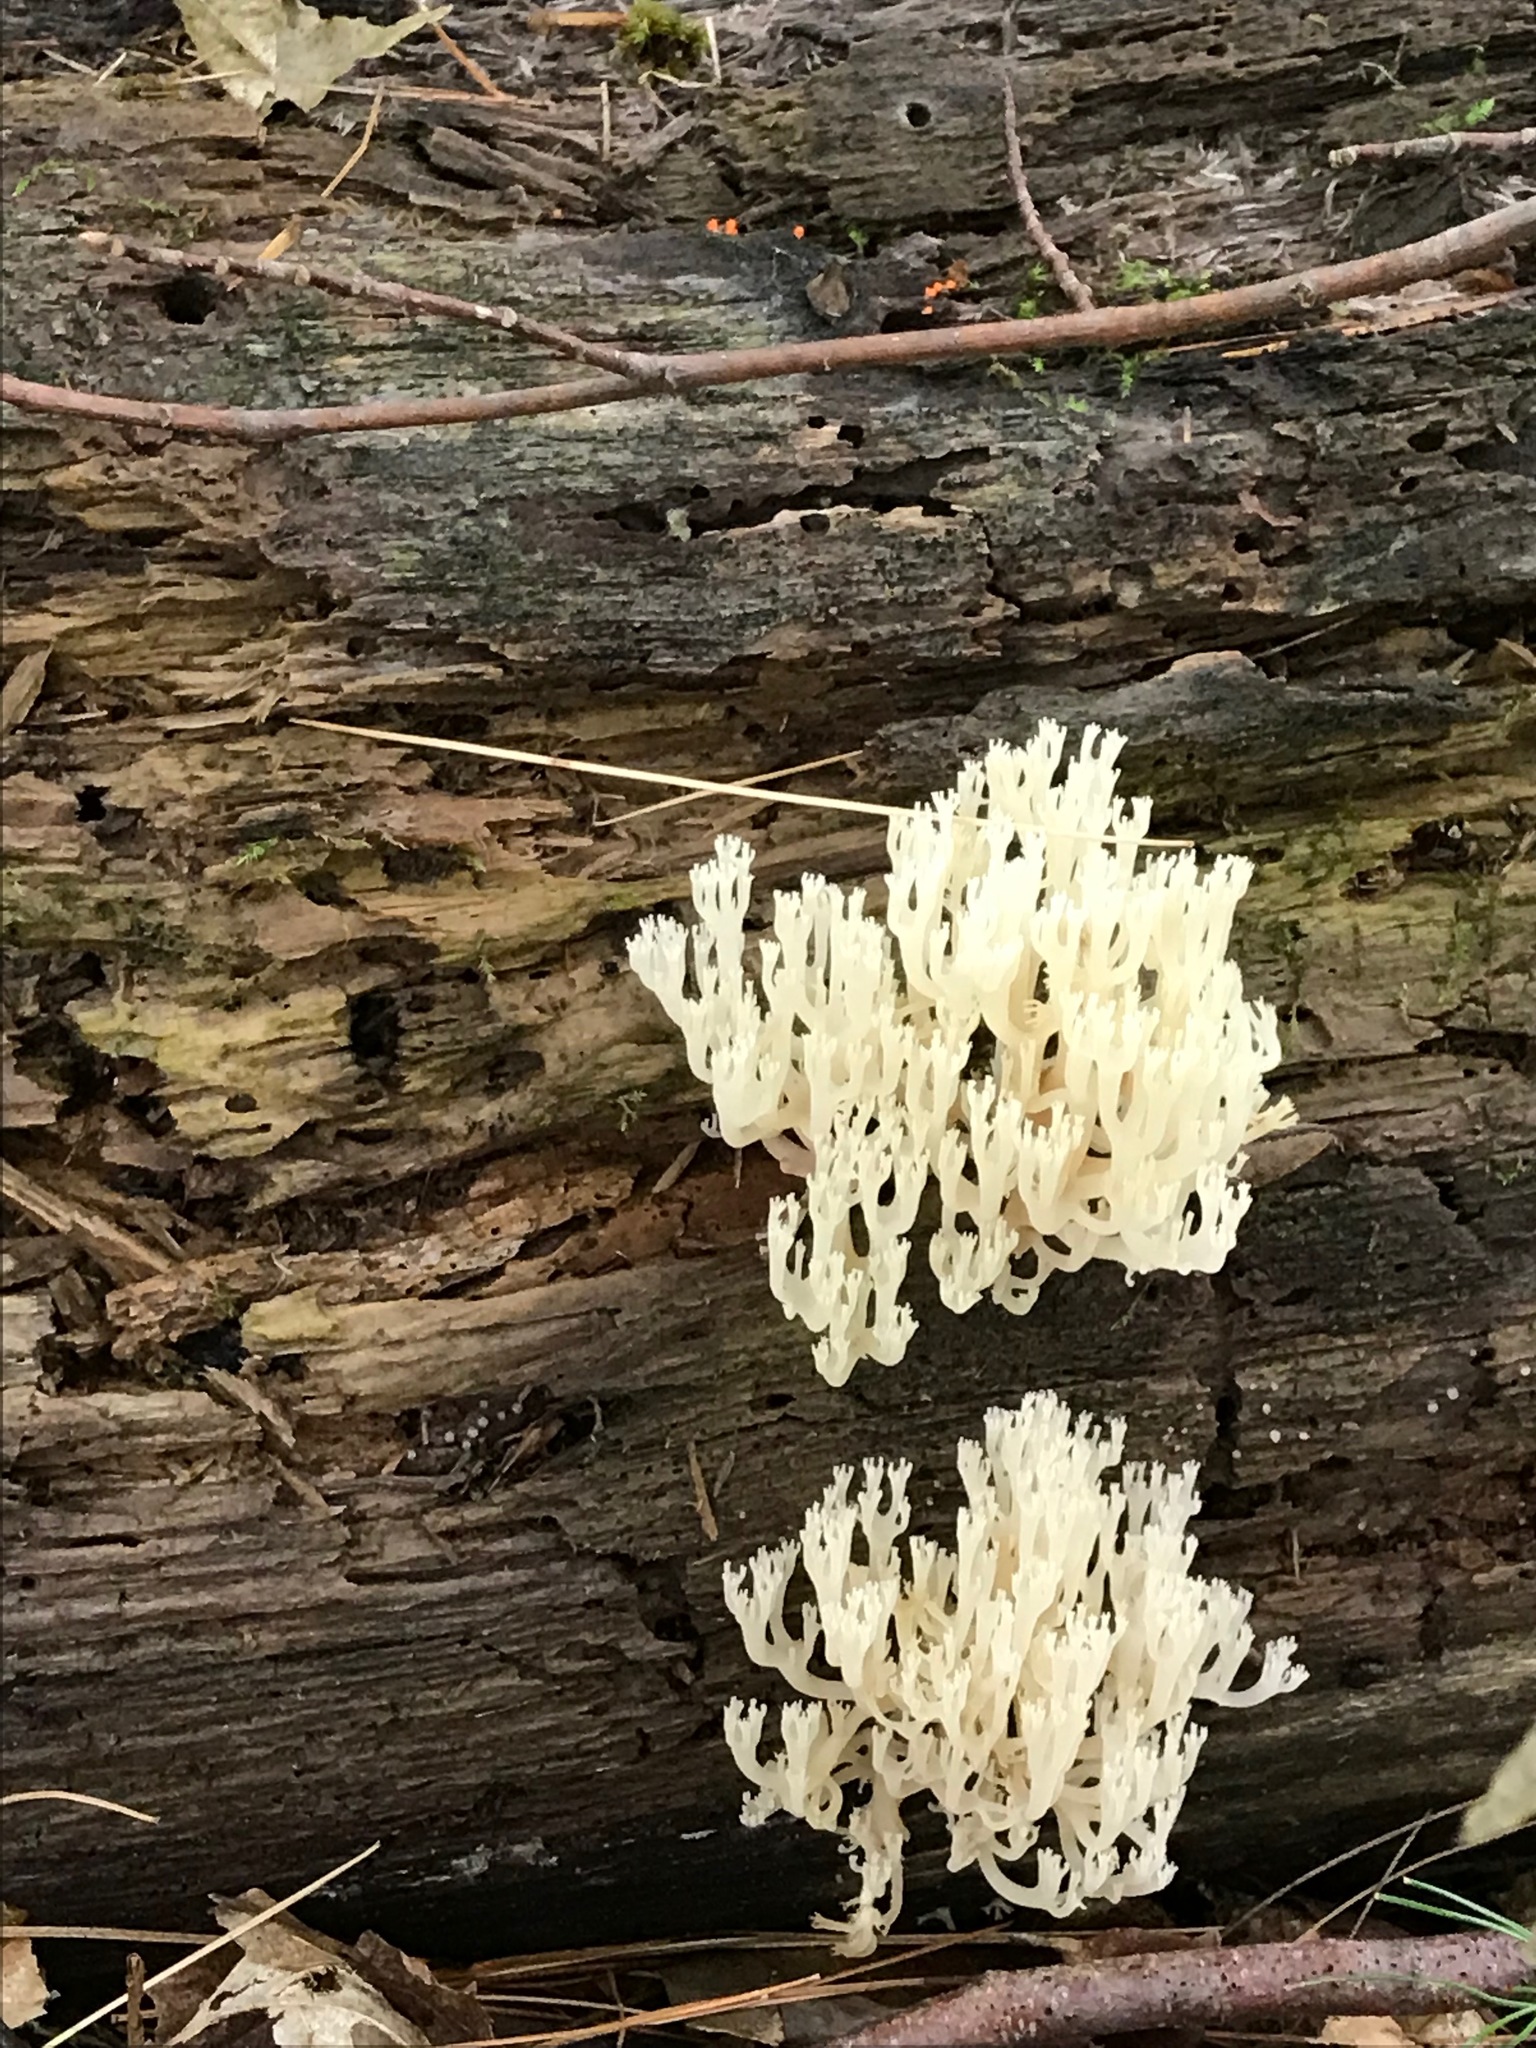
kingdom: Fungi
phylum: Basidiomycota
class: Agaricomycetes
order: Russulales
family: Auriscalpiaceae
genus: Artomyces
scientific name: Artomyces pyxidatus
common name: Crown-tipped coral fungus
